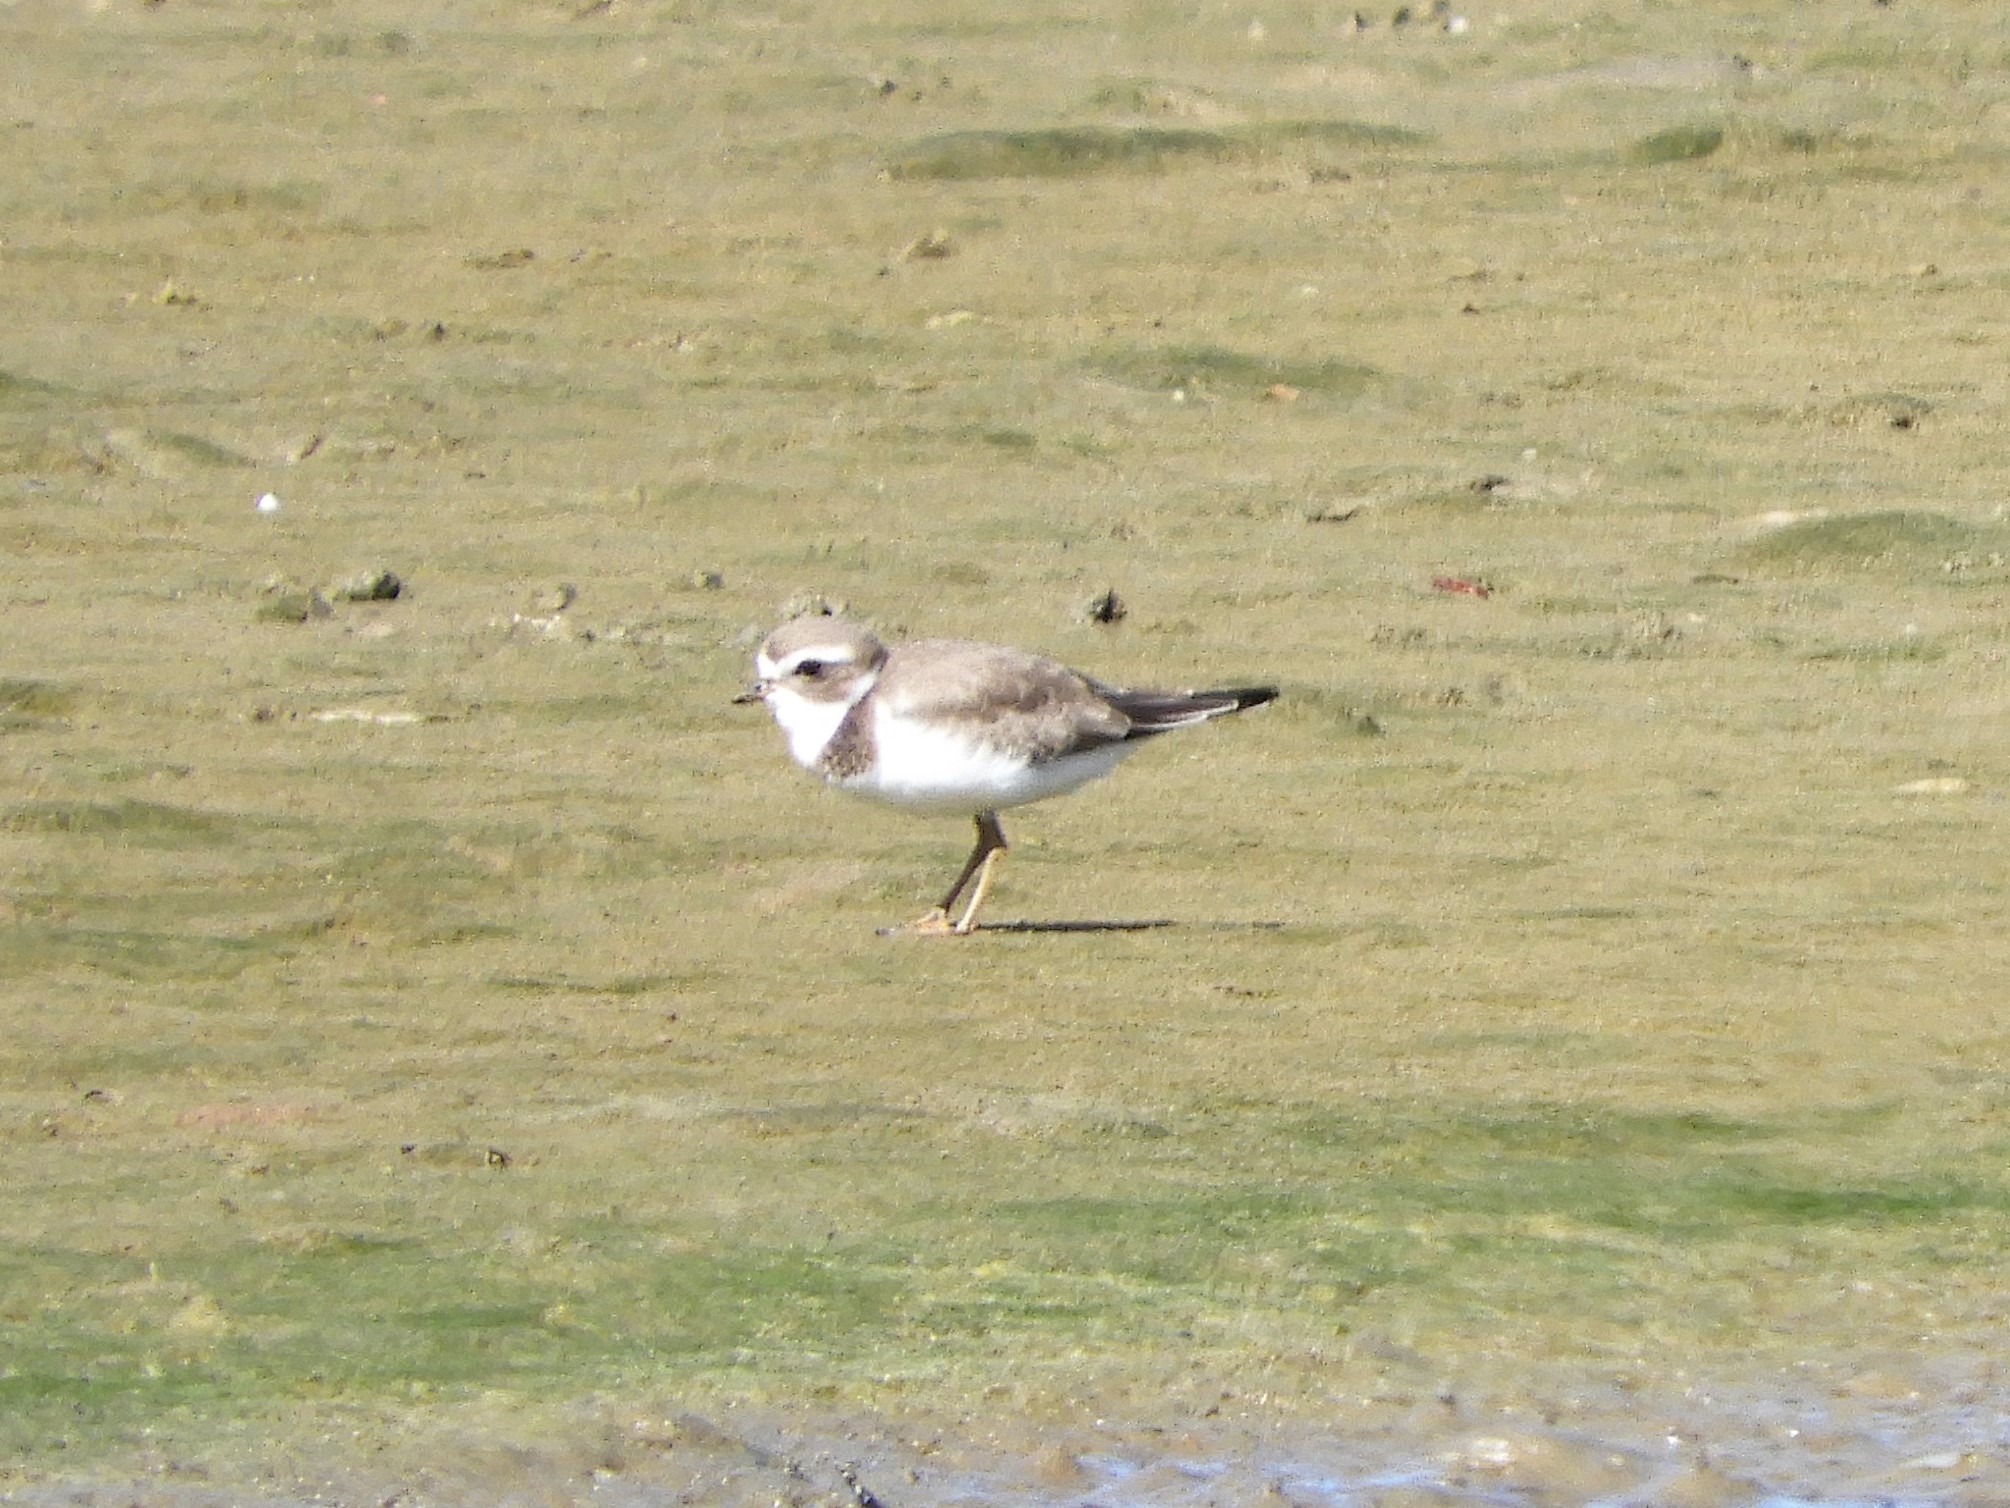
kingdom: Animalia
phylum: Chordata
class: Aves
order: Charadriiformes
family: Charadriidae
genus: Charadrius
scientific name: Charadrius semipalmatus
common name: Semipalmated plover
